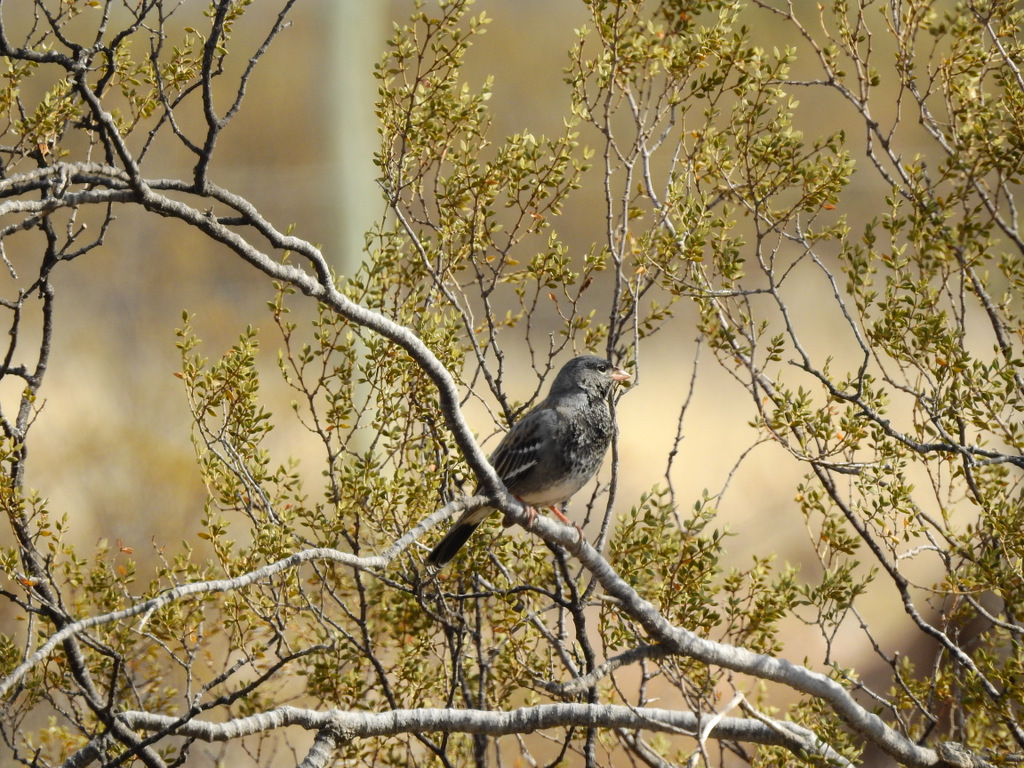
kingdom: Animalia
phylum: Chordata
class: Aves
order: Passeriformes
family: Thraupidae
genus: Rhopospina
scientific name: Rhopospina fruticeti
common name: Mourning sierra finch
